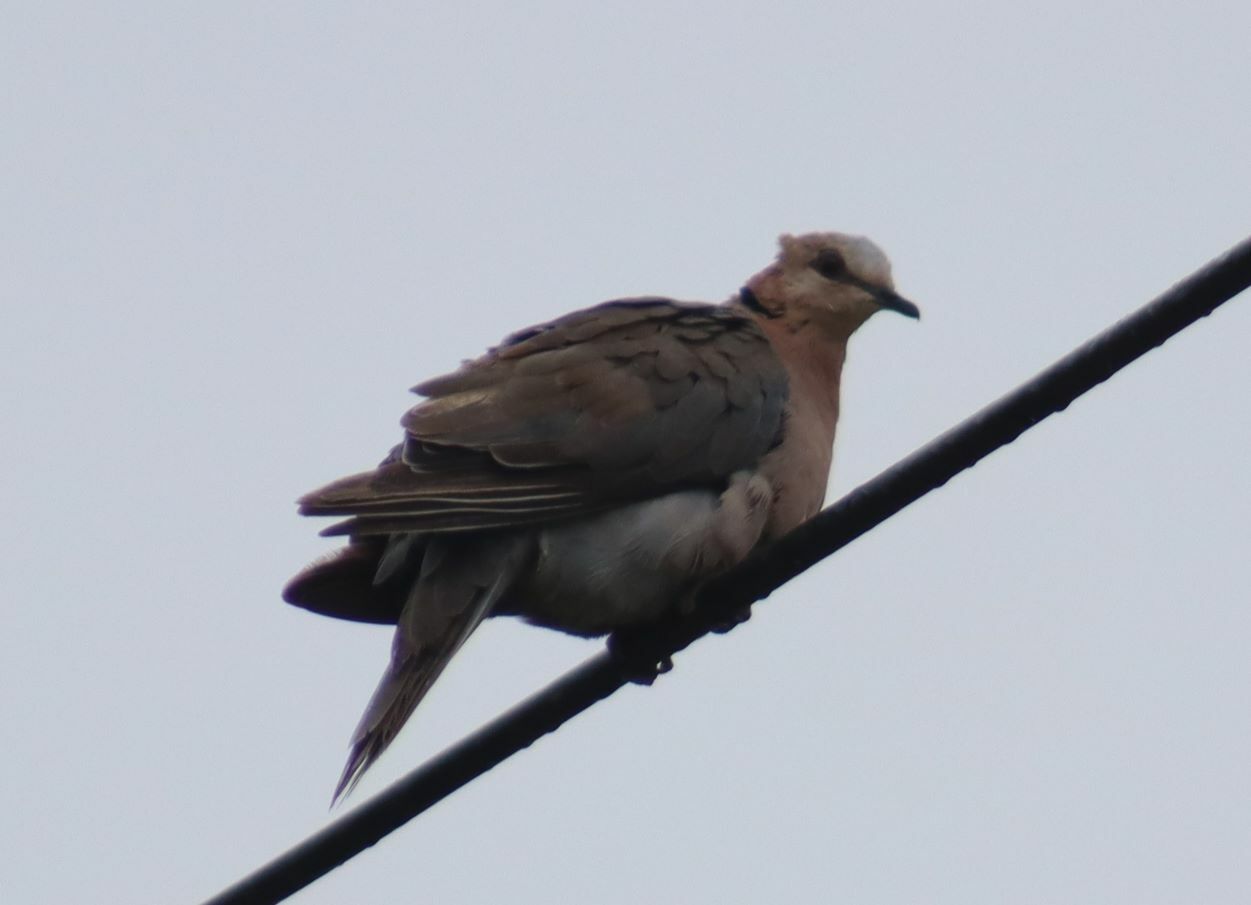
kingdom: Animalia
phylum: Chordata
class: Aves
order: Columbiformes
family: Columbidae
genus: Streptopelia
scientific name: Streptopelia semitorquata
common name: Red-eyed dove
